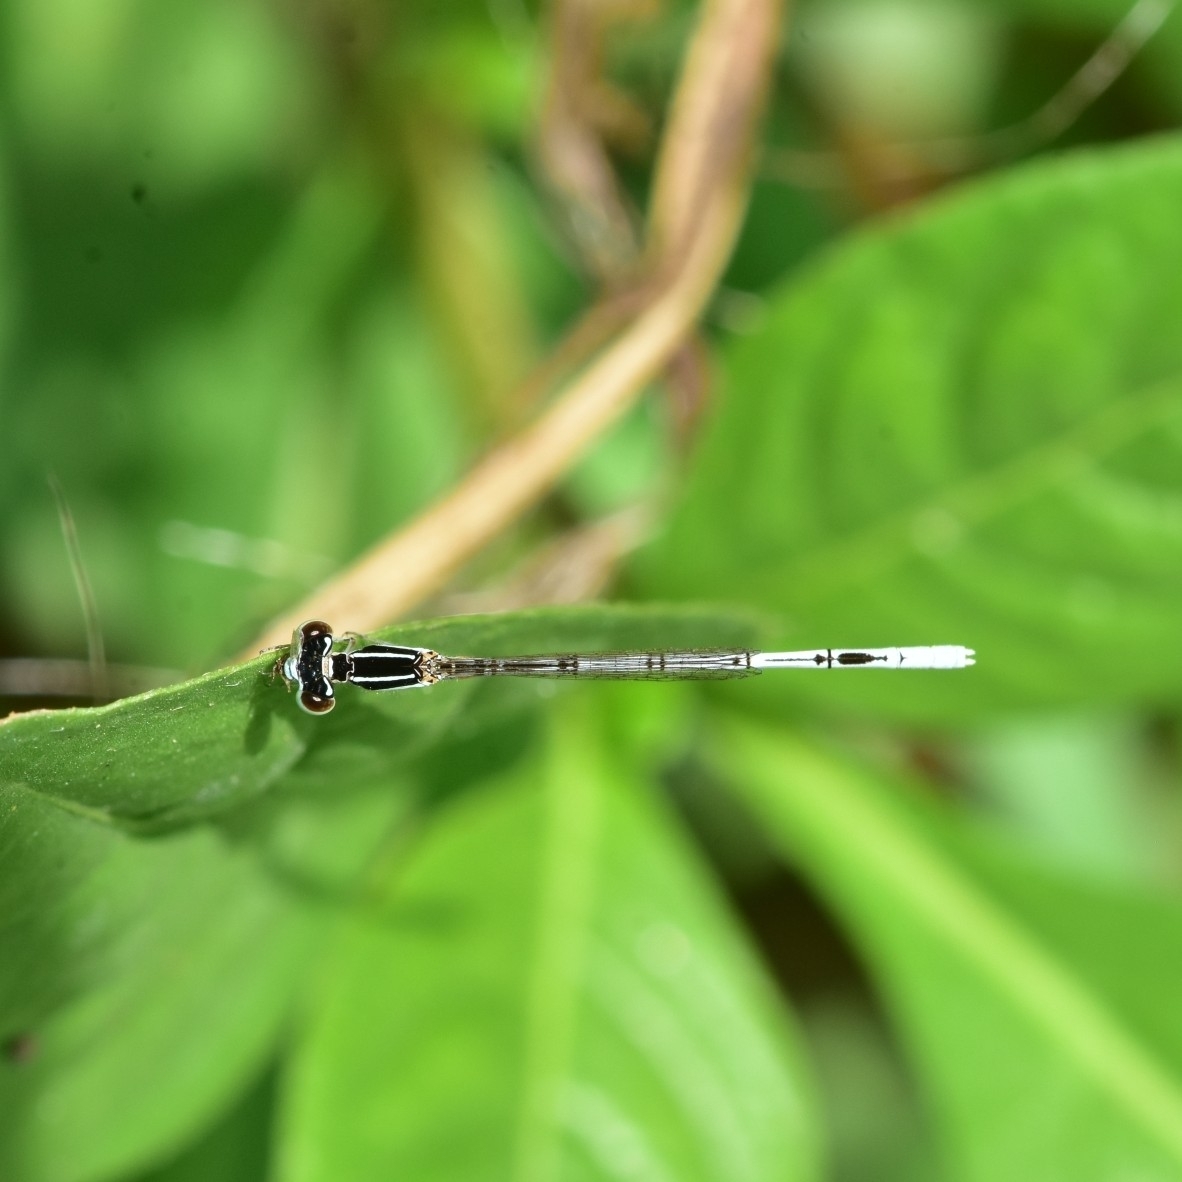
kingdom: Animalia
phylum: Arthropoda
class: Insecta
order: Odonata
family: Coenagrionidae
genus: Agriocnemis
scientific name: Agriocnemis pieris
